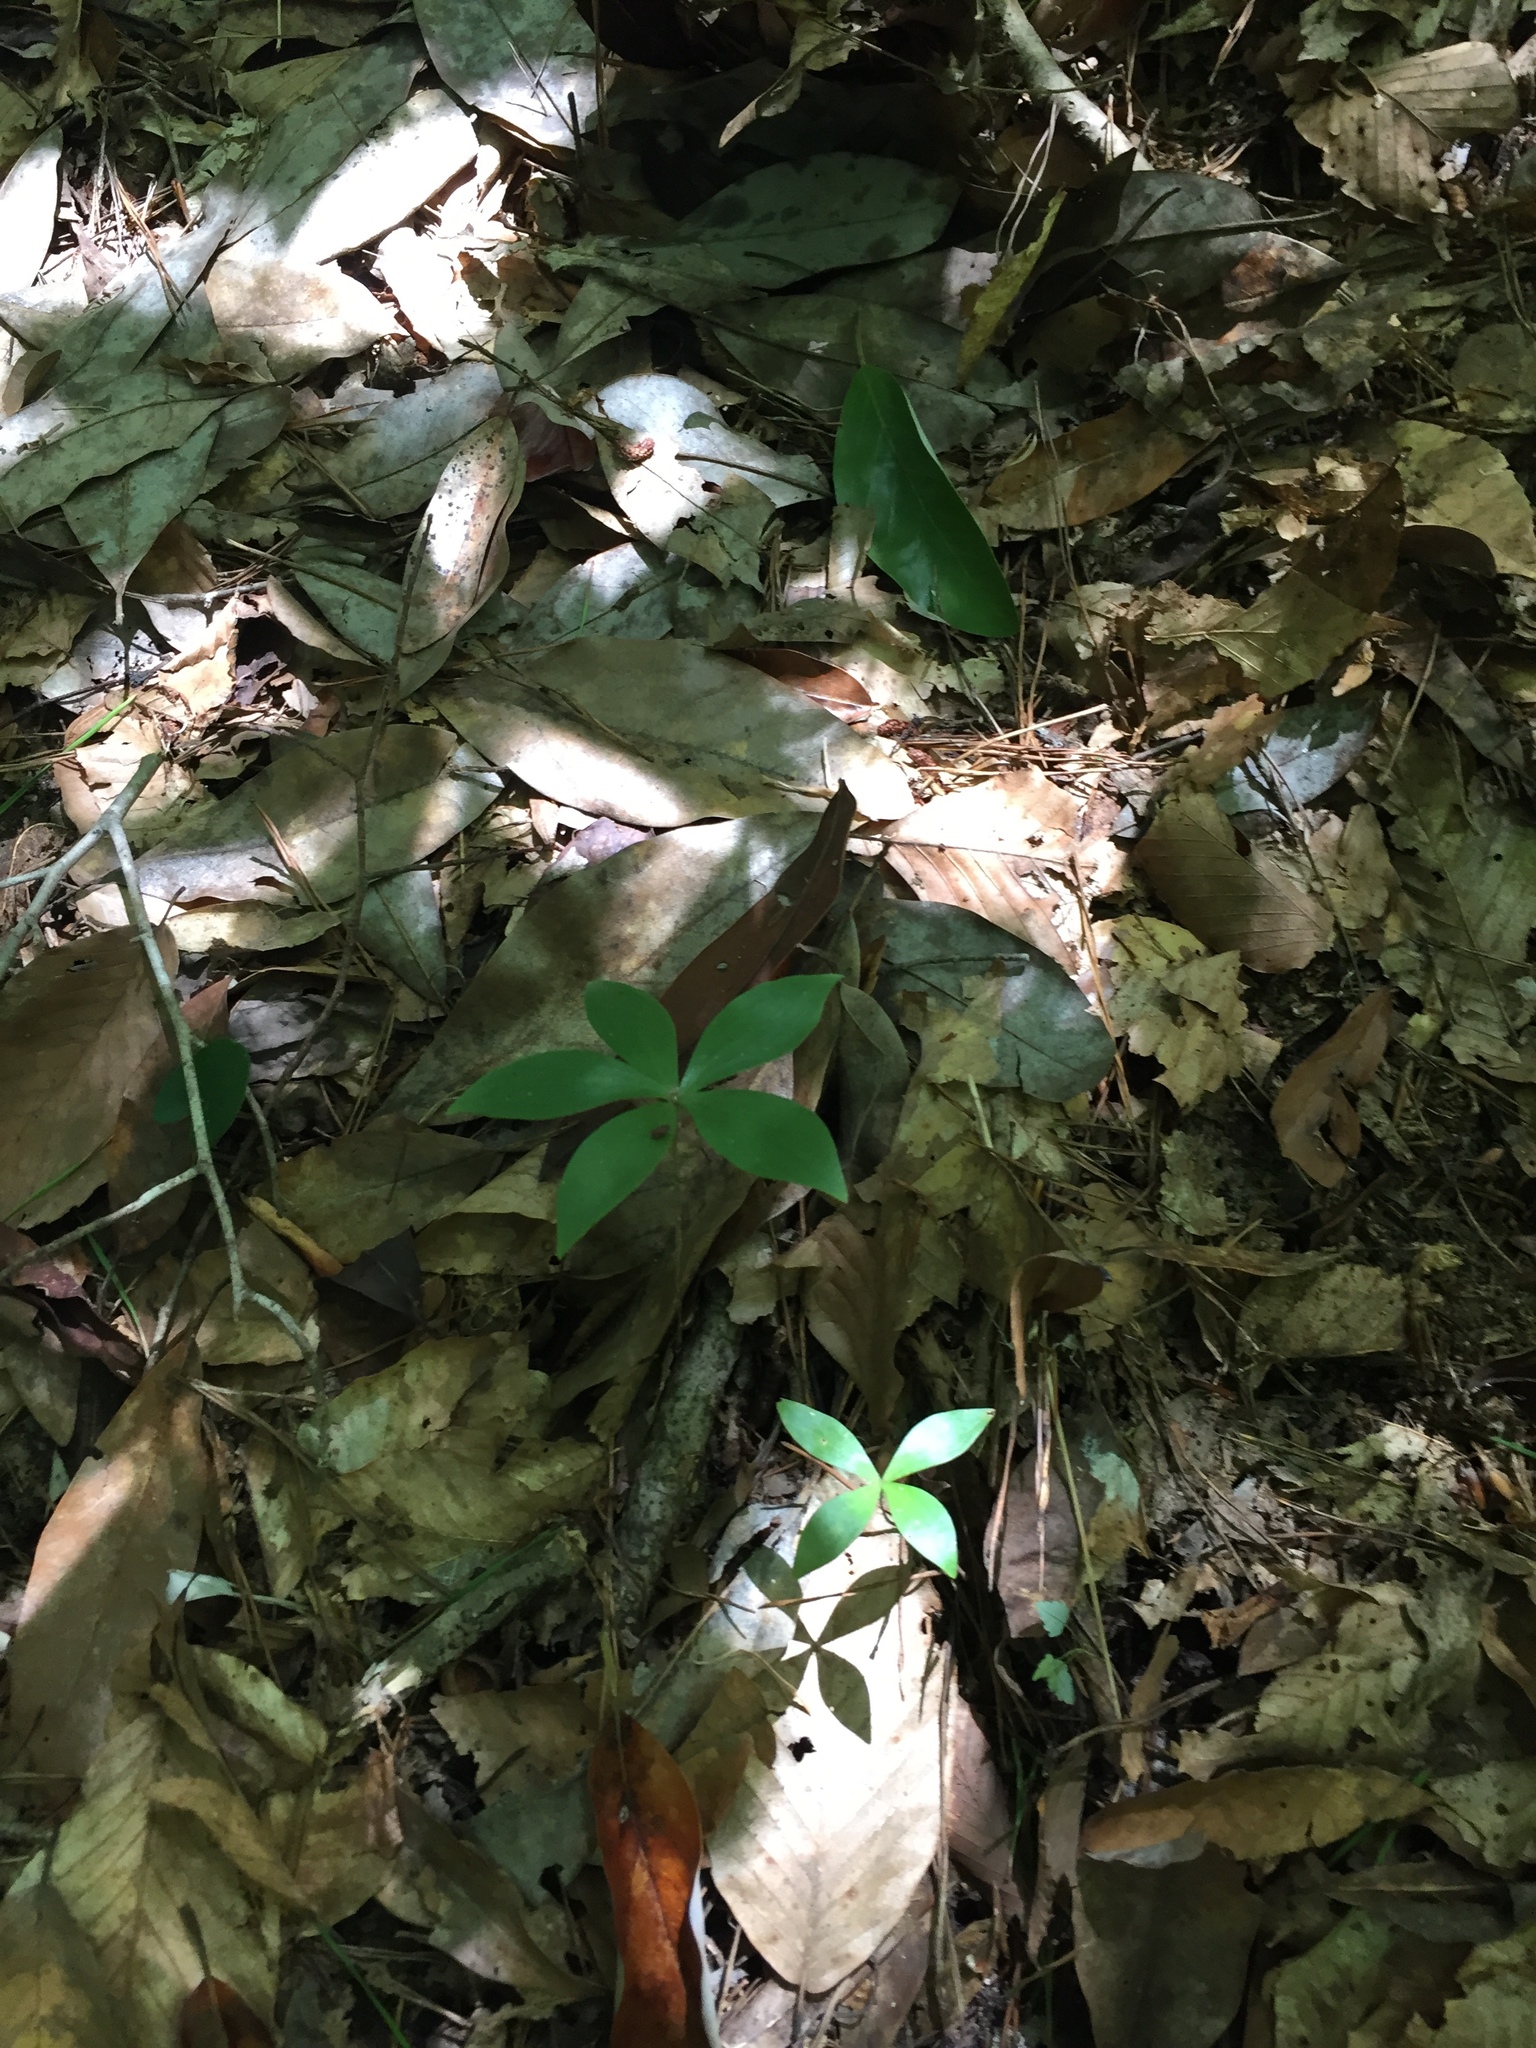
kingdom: Plantae
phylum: Tracheophyta
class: Liliopsida
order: Liliales
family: Liliaceae
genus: Medeola
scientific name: Medeola virginiana
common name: Indian cucumber-root
